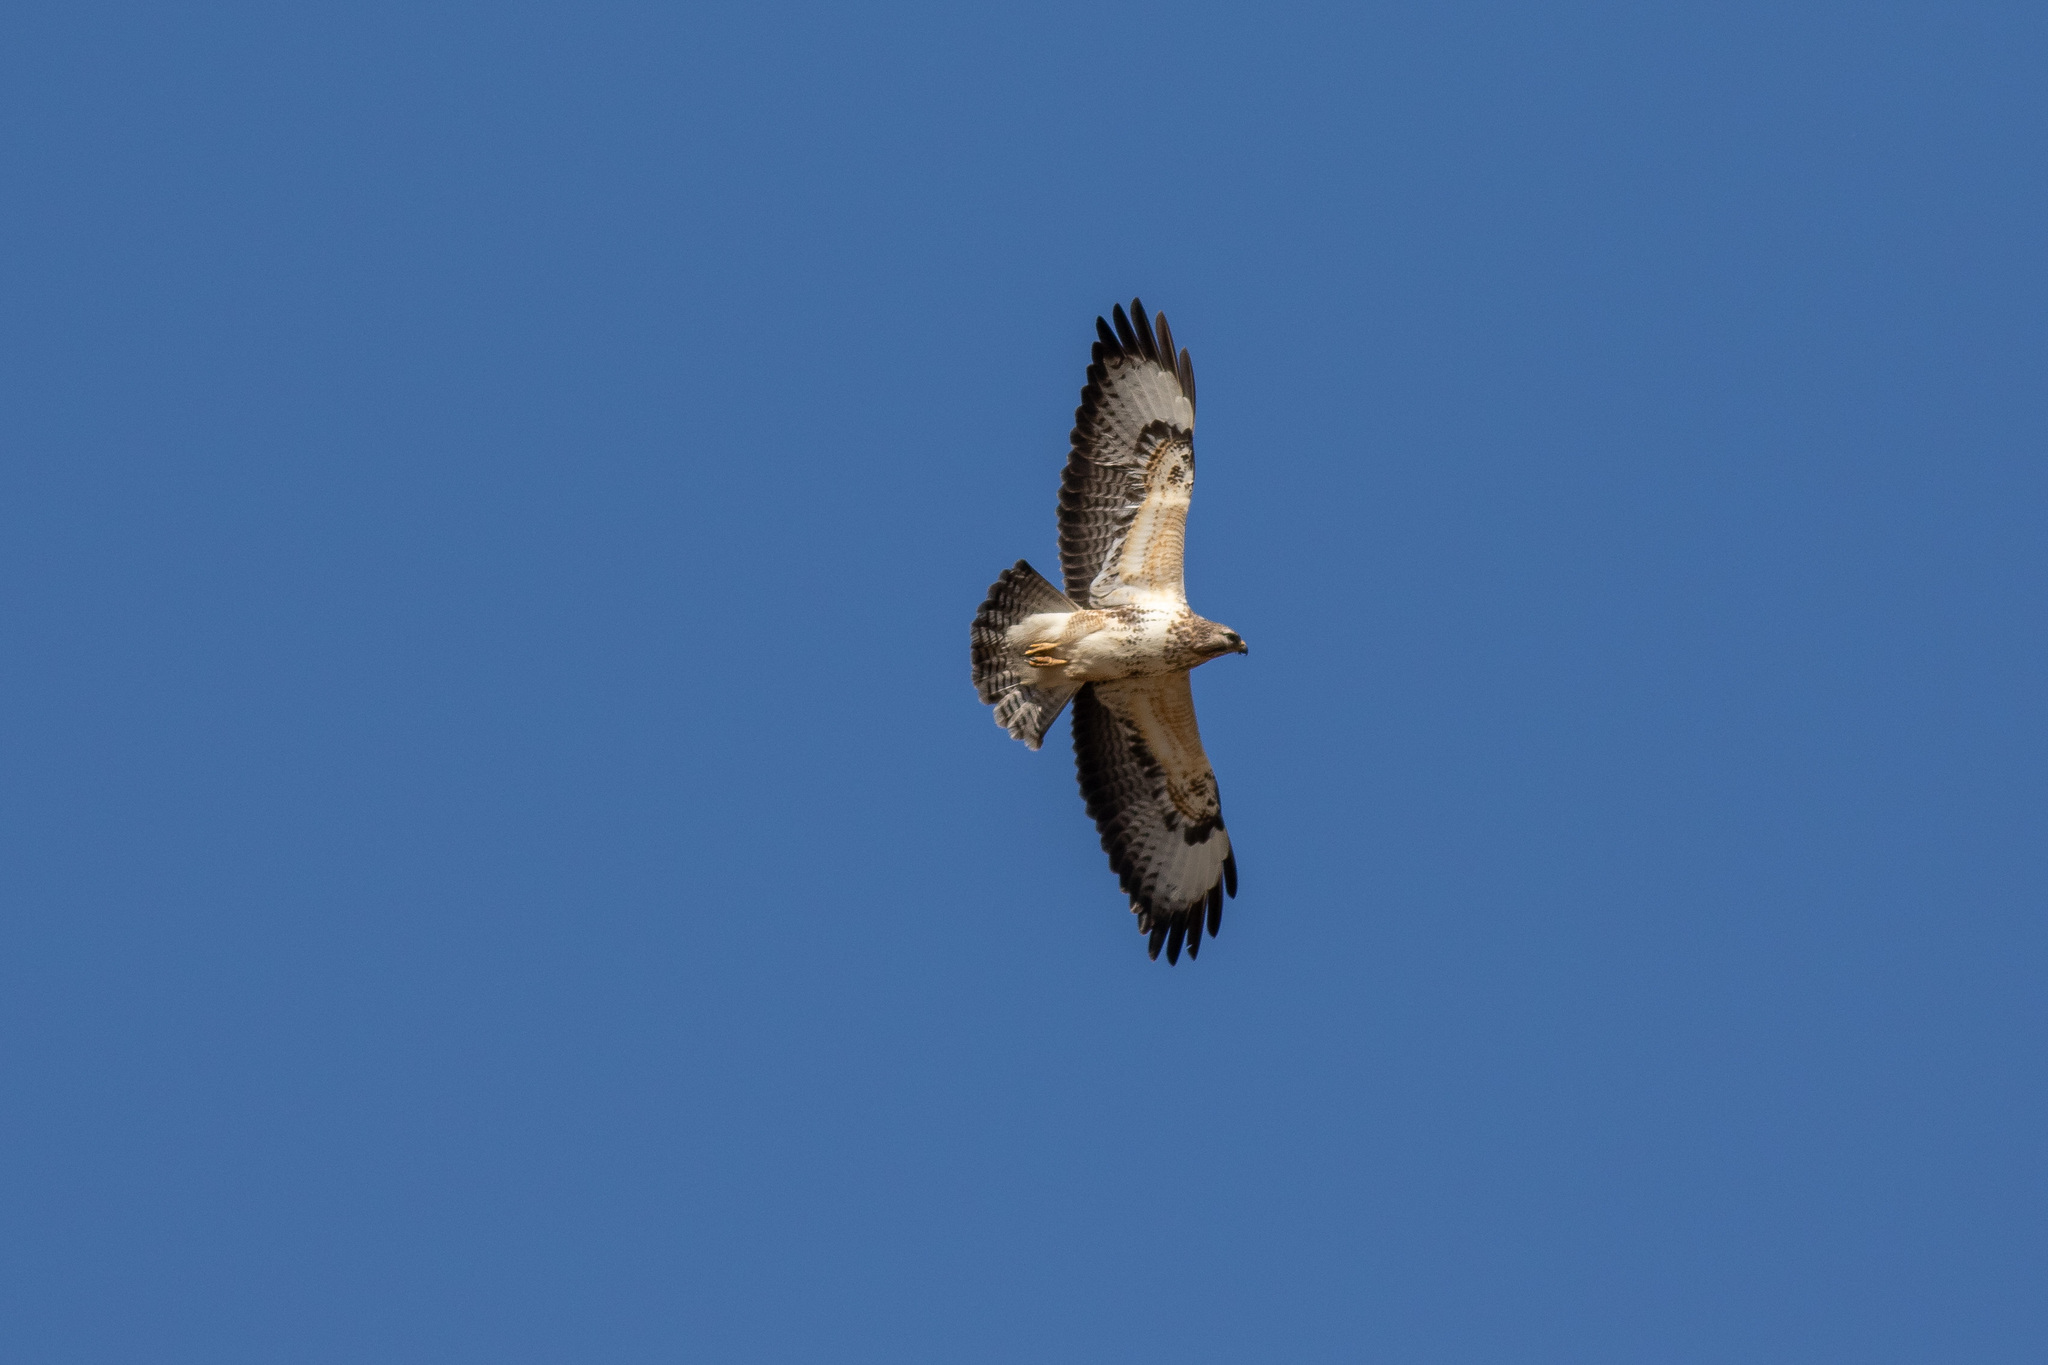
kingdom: Animalia
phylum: Chordata
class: Aves
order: Accipitriformes
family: Accipitridae
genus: Buteo
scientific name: Buteo buteo
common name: Common buzzard
